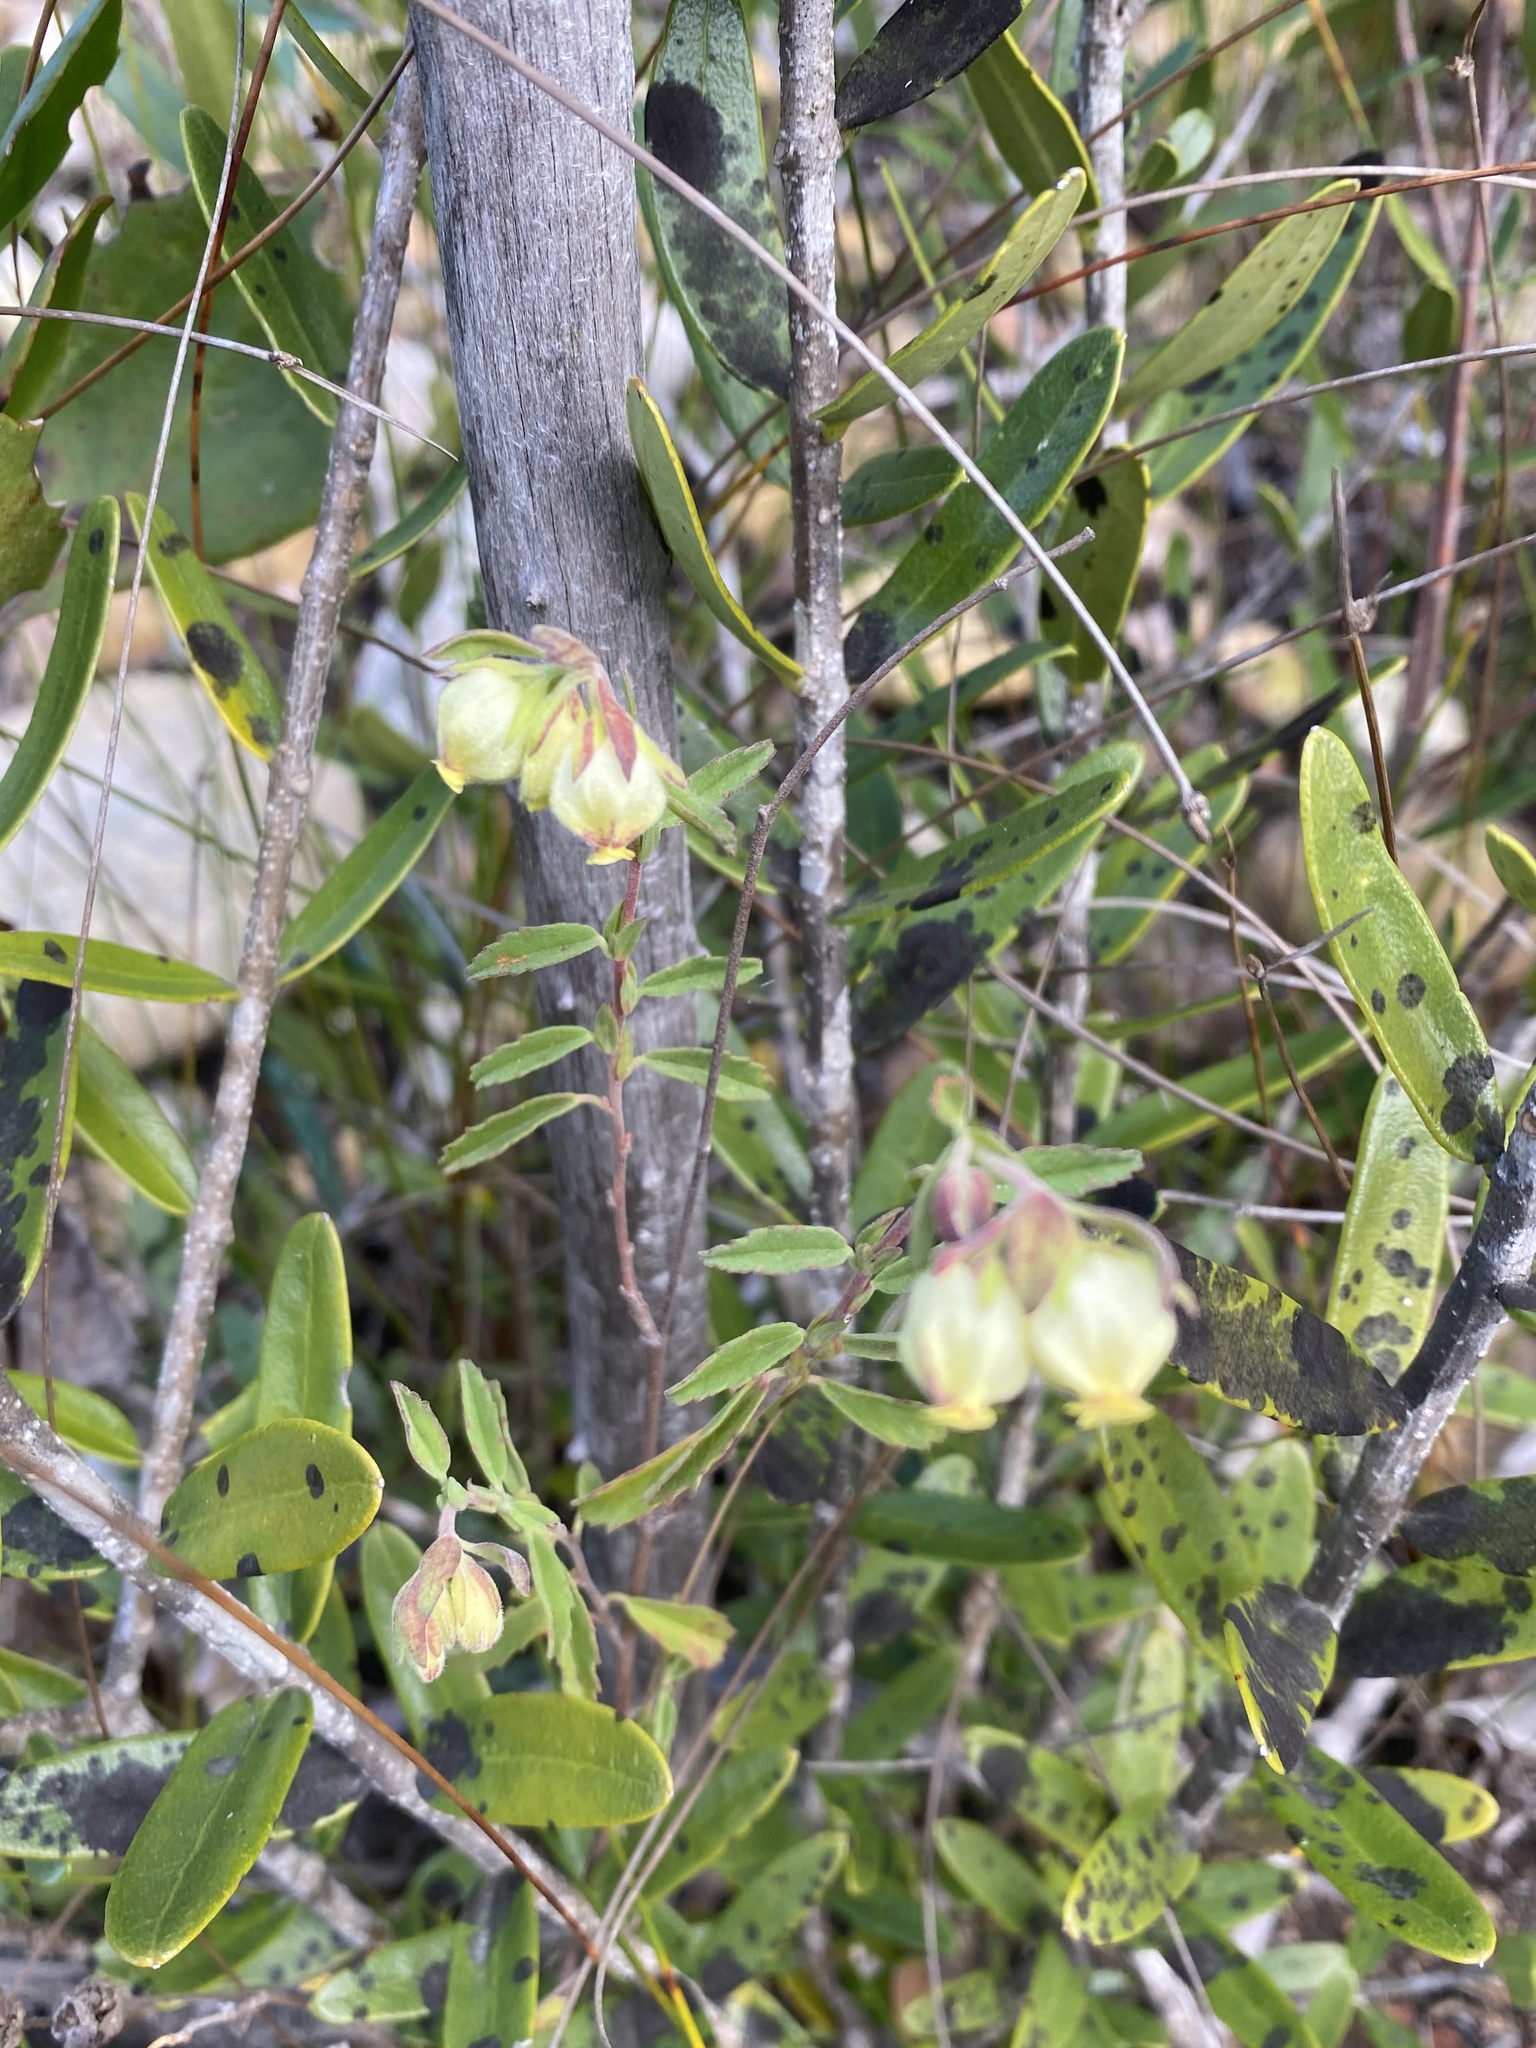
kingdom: Plantae
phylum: Tracheophyta
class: Magnoliopsida
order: Malvales
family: Malvaceae
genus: Hermannia
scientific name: Hermannia hyssopifolia
